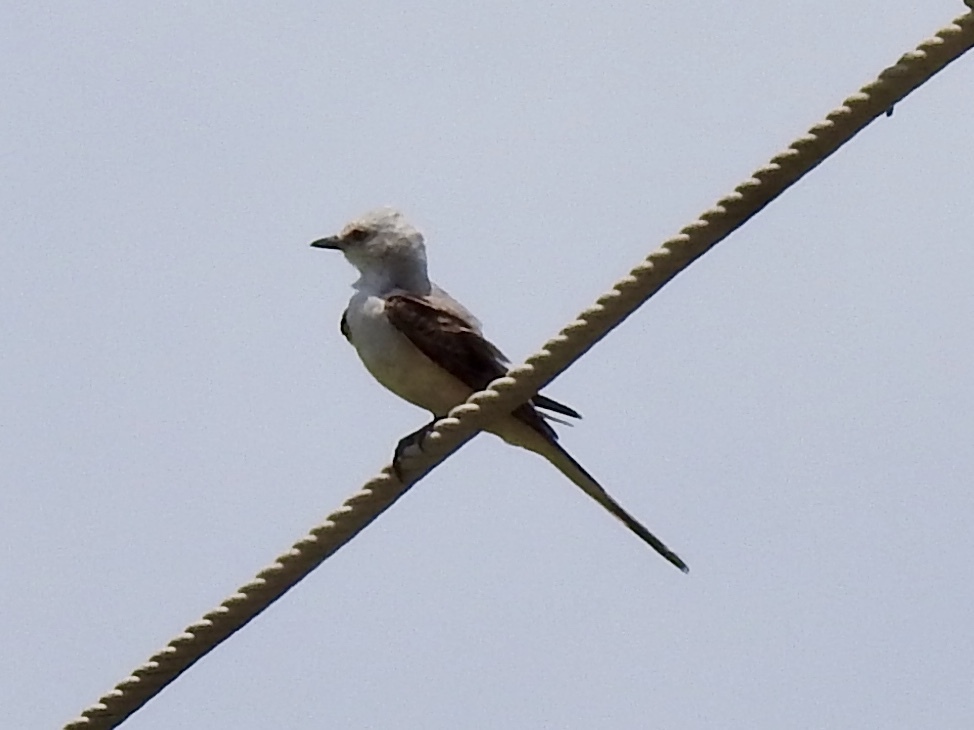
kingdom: Animalia
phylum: Chordata
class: Aves
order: Passeriformes
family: Tyrannidae
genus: Tyrannus
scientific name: Tyrannus forficatus
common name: Scissor-tailed flycatcher
